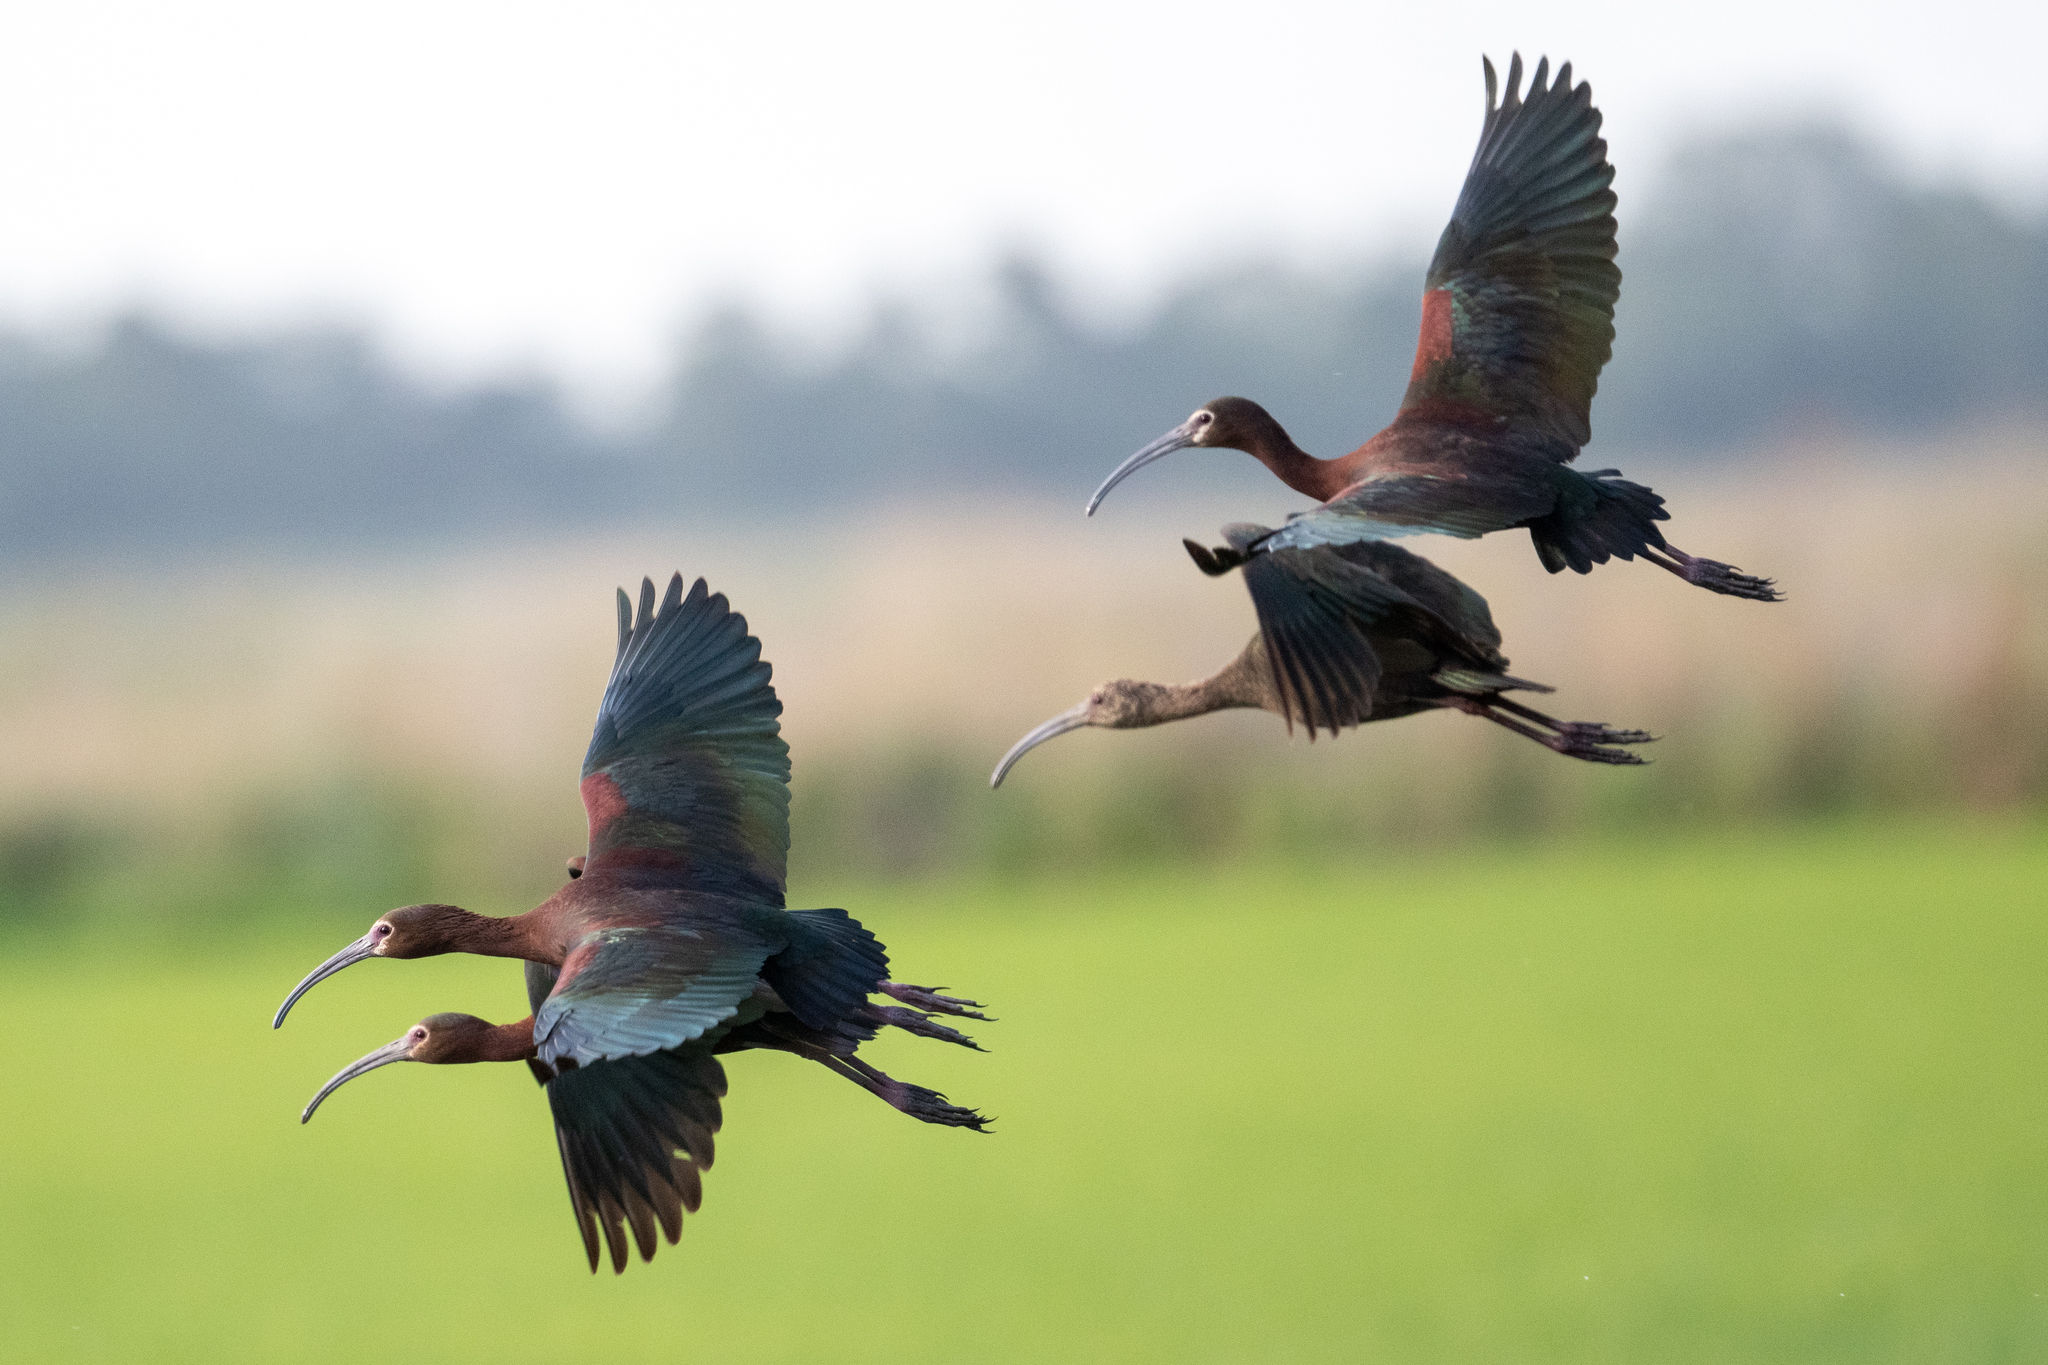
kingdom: Animalia
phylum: Chordata
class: Aves
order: Pelecaniformes
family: Threskiornithidae
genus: Plegadis
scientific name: Plegadis chihi
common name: White-faced ibis
